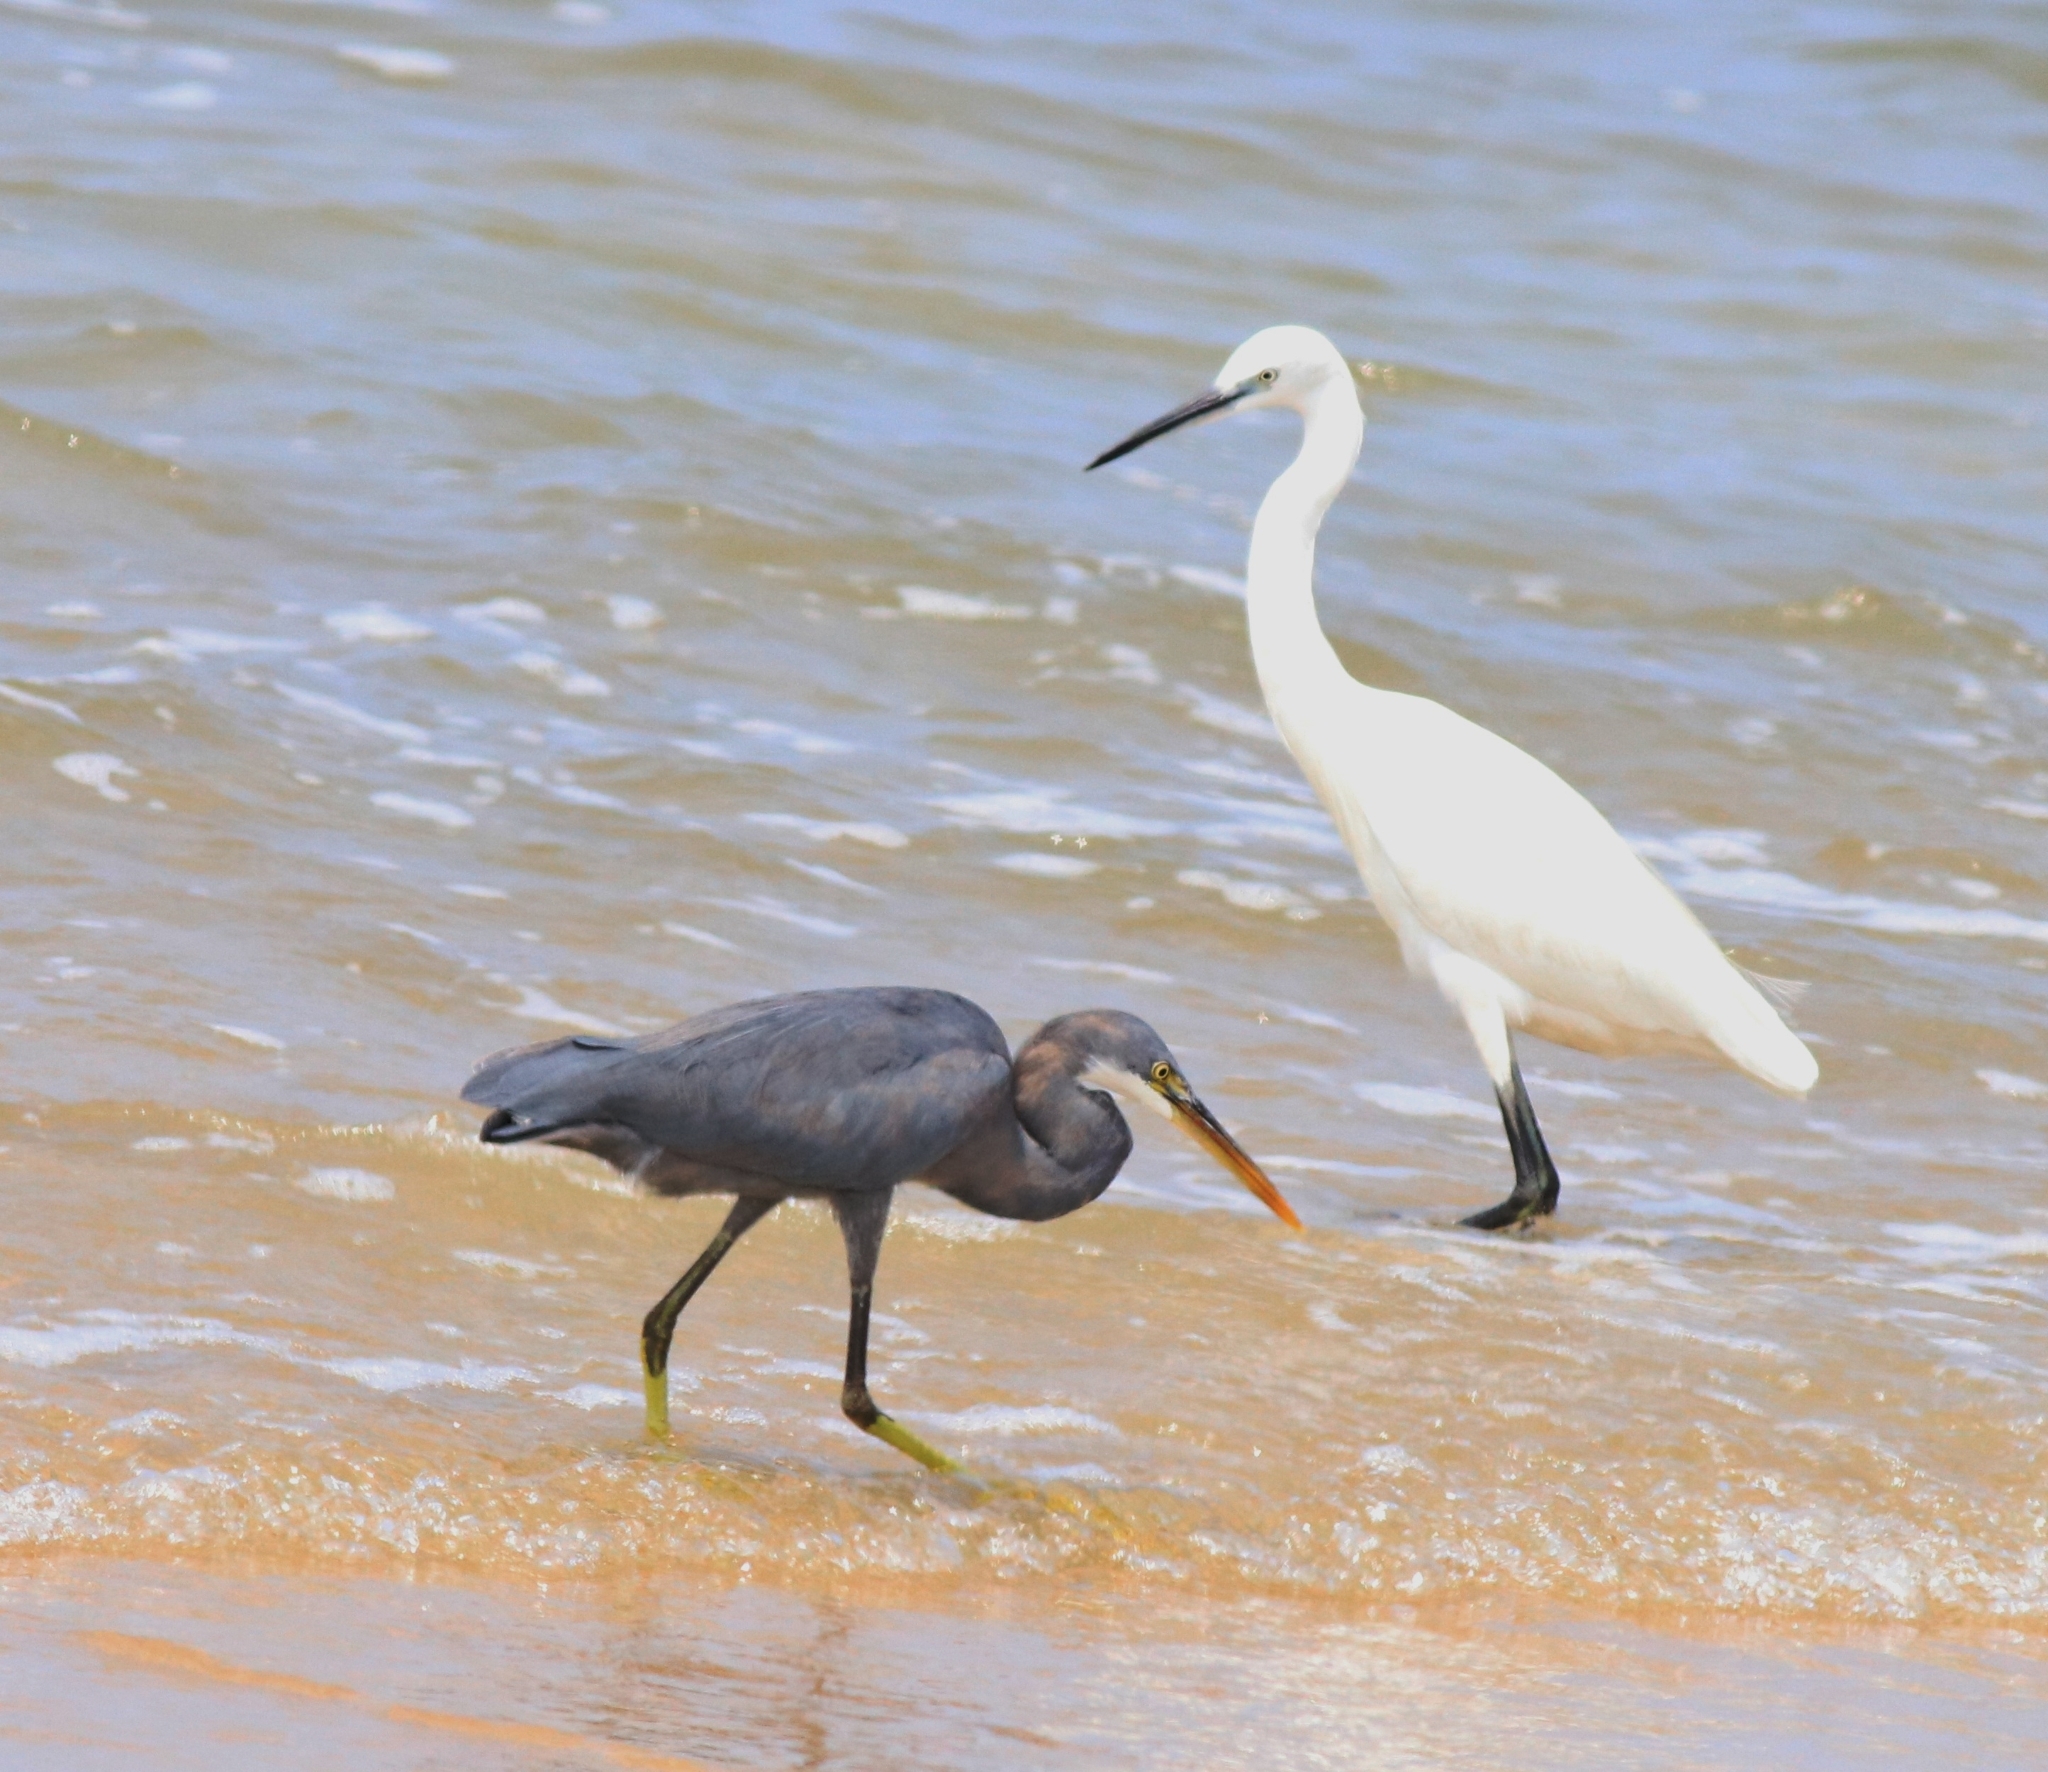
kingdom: Animalia
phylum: Chordata
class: Aves
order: Pelecaniformes
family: Ardeidae
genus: Egretta
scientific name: Egretta garzetta
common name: Little egret
